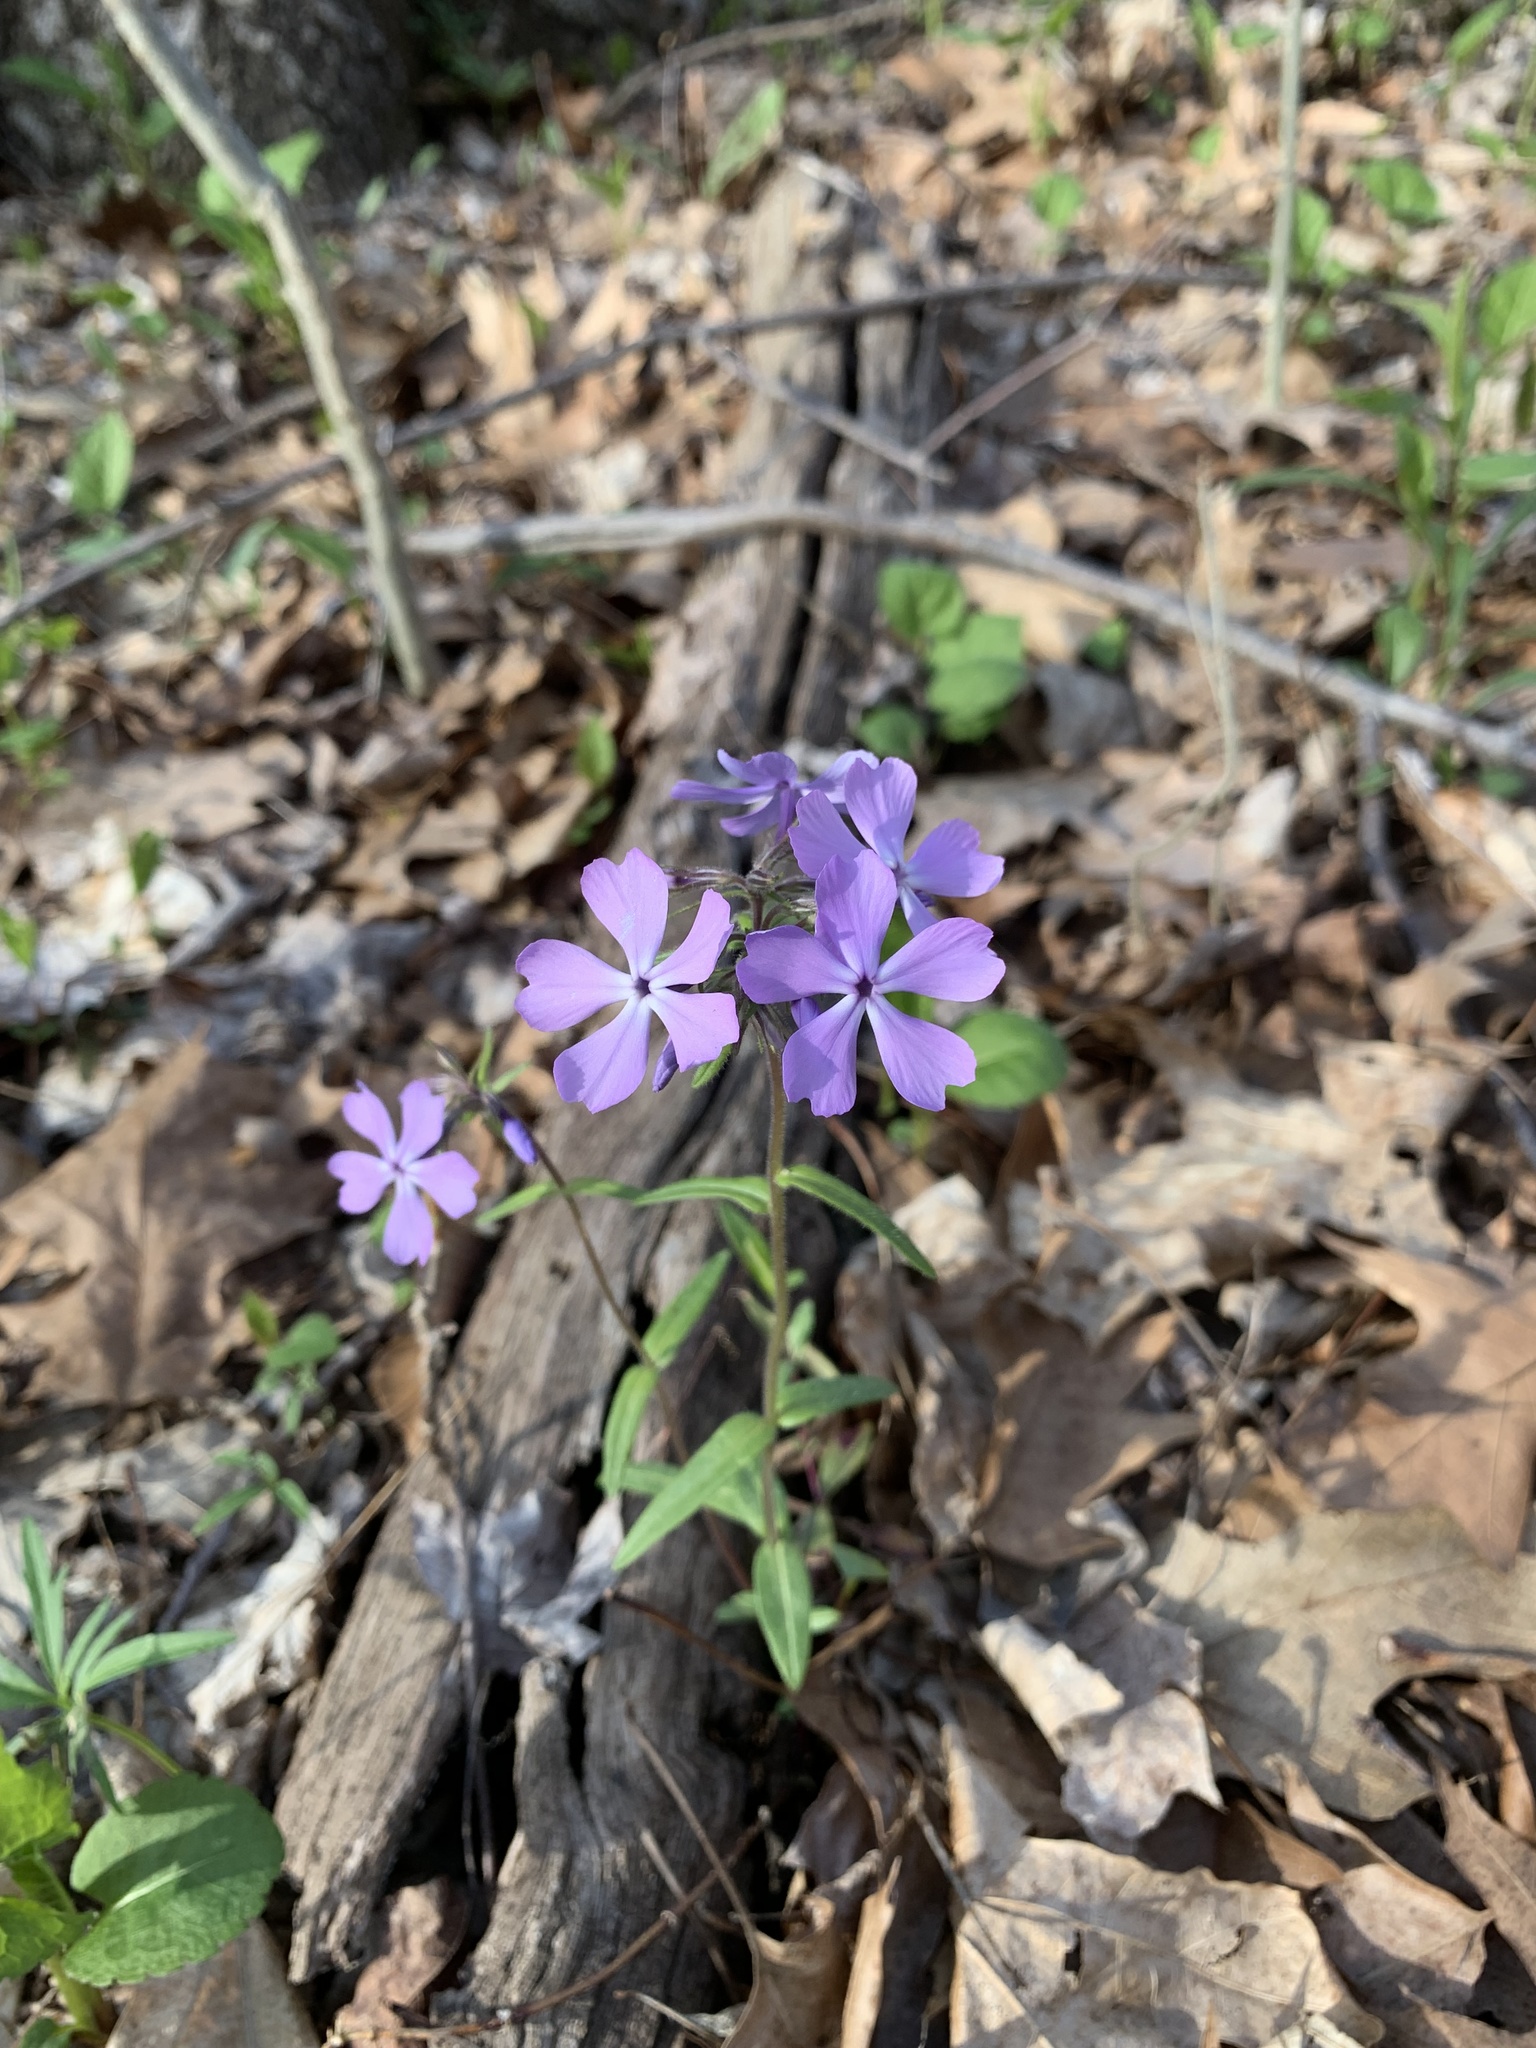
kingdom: Plantae
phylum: Tracheophyta
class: Magnoliopsida
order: Ericales
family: Polemoniaceae
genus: Phlox
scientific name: Phlox divaricata
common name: Blue phlox
